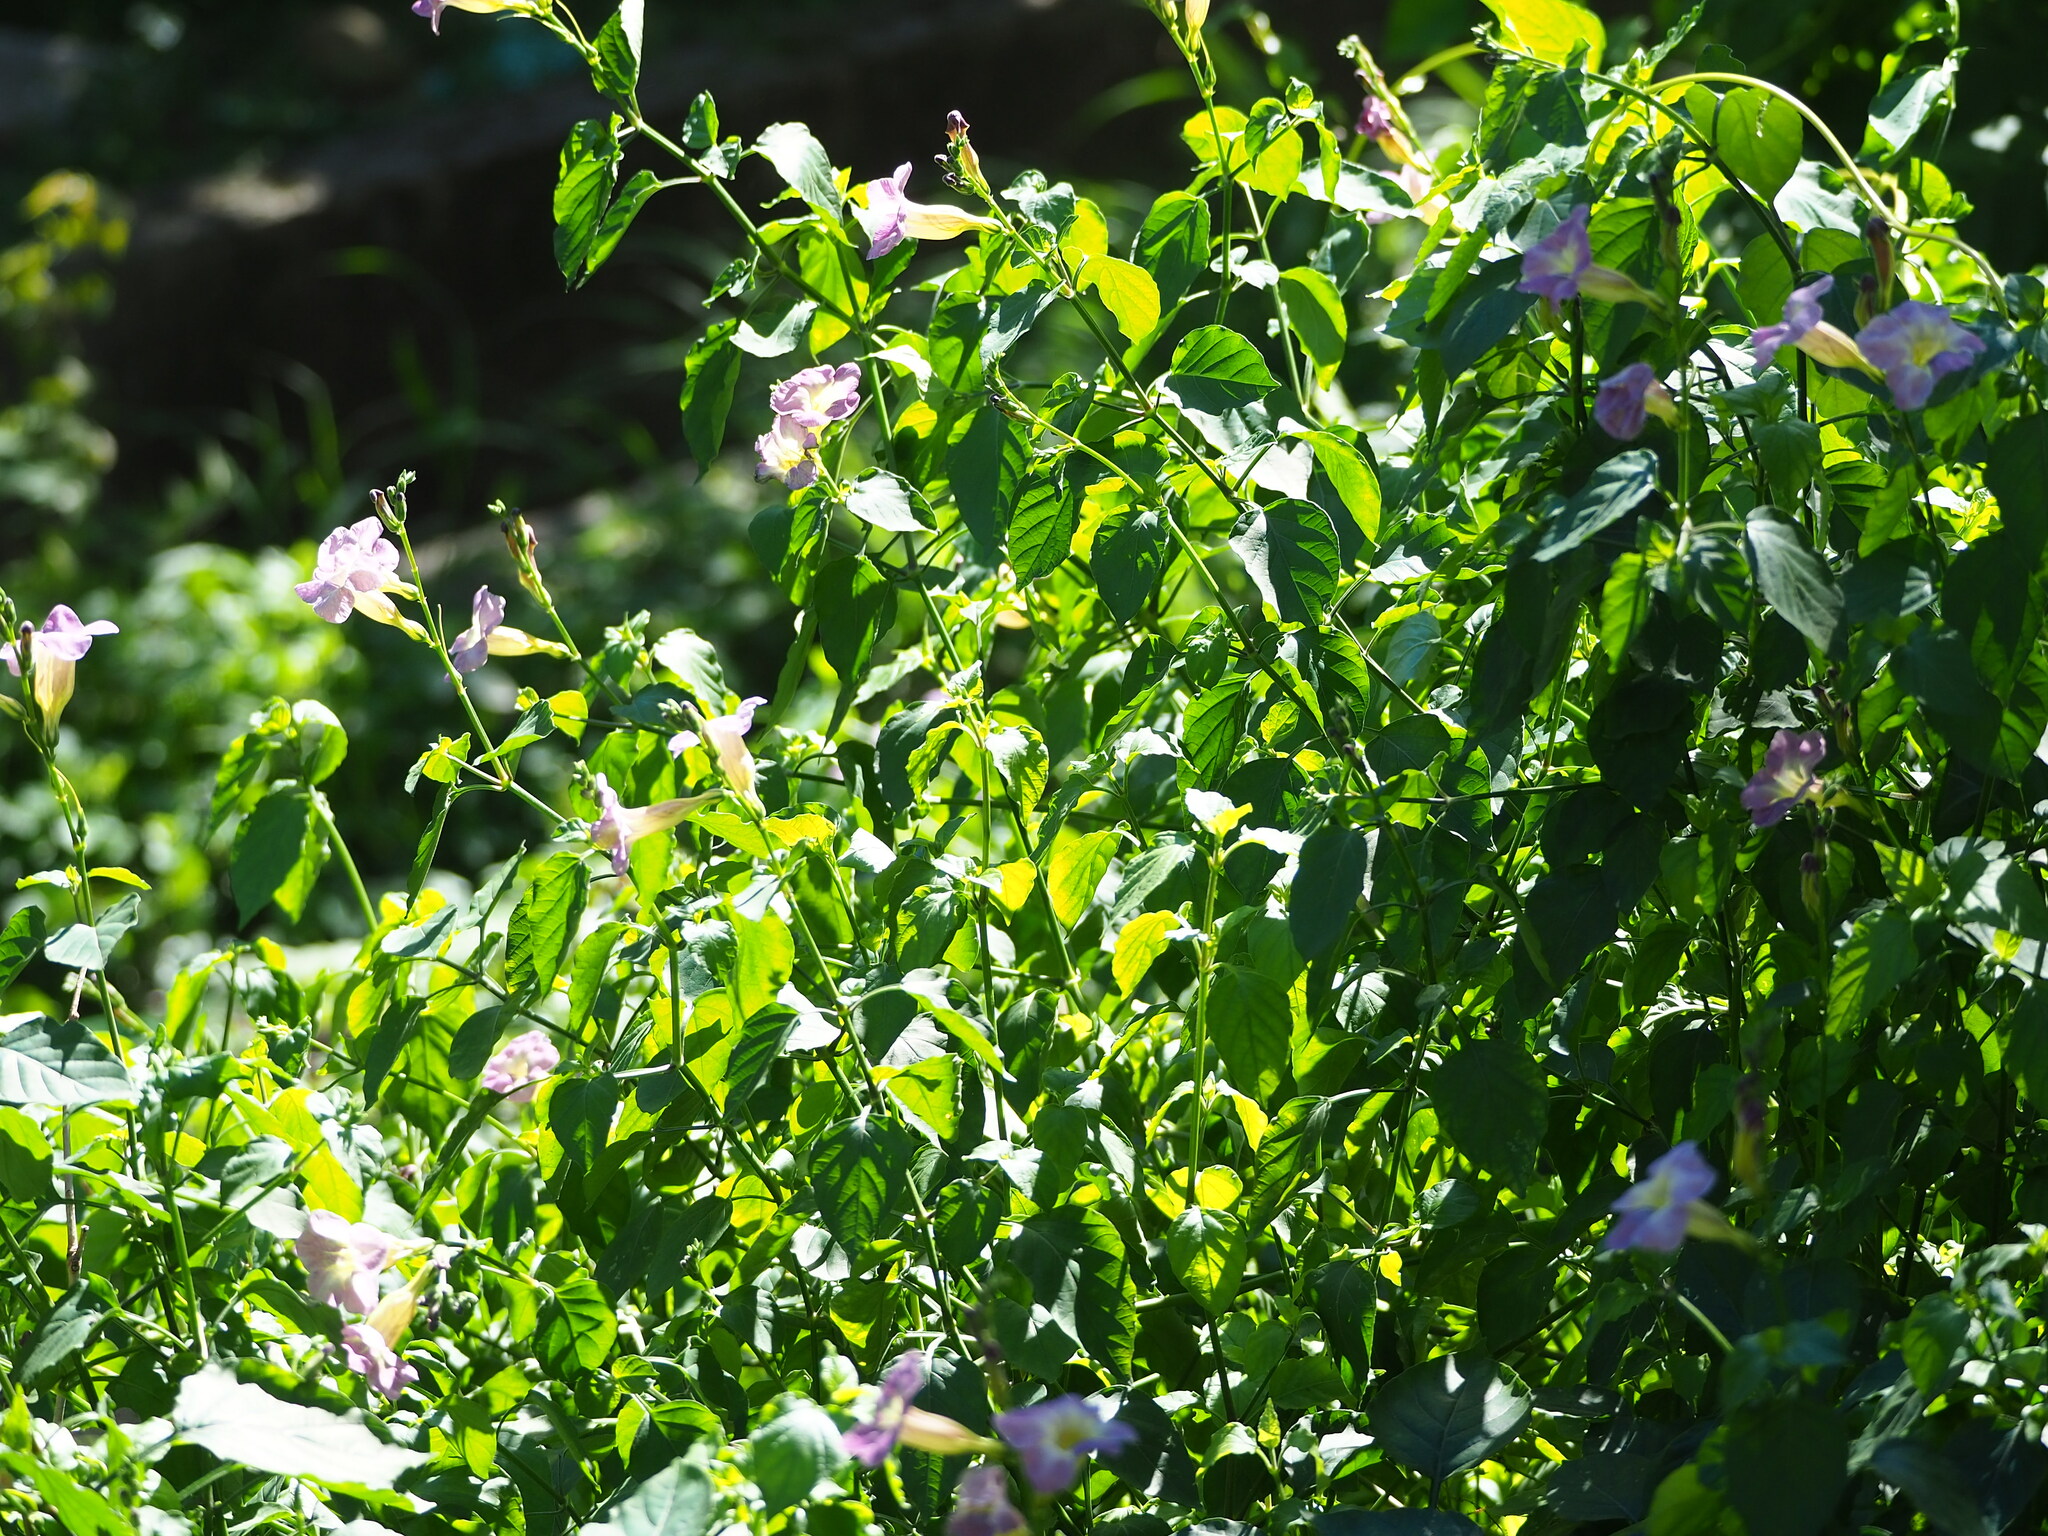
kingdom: Plantae
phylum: Tracheophyta
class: Magnoliopsida
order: Lamiales
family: Acanthaceae
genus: Asystasia
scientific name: Asystasia gangetica
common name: Chinese violet
